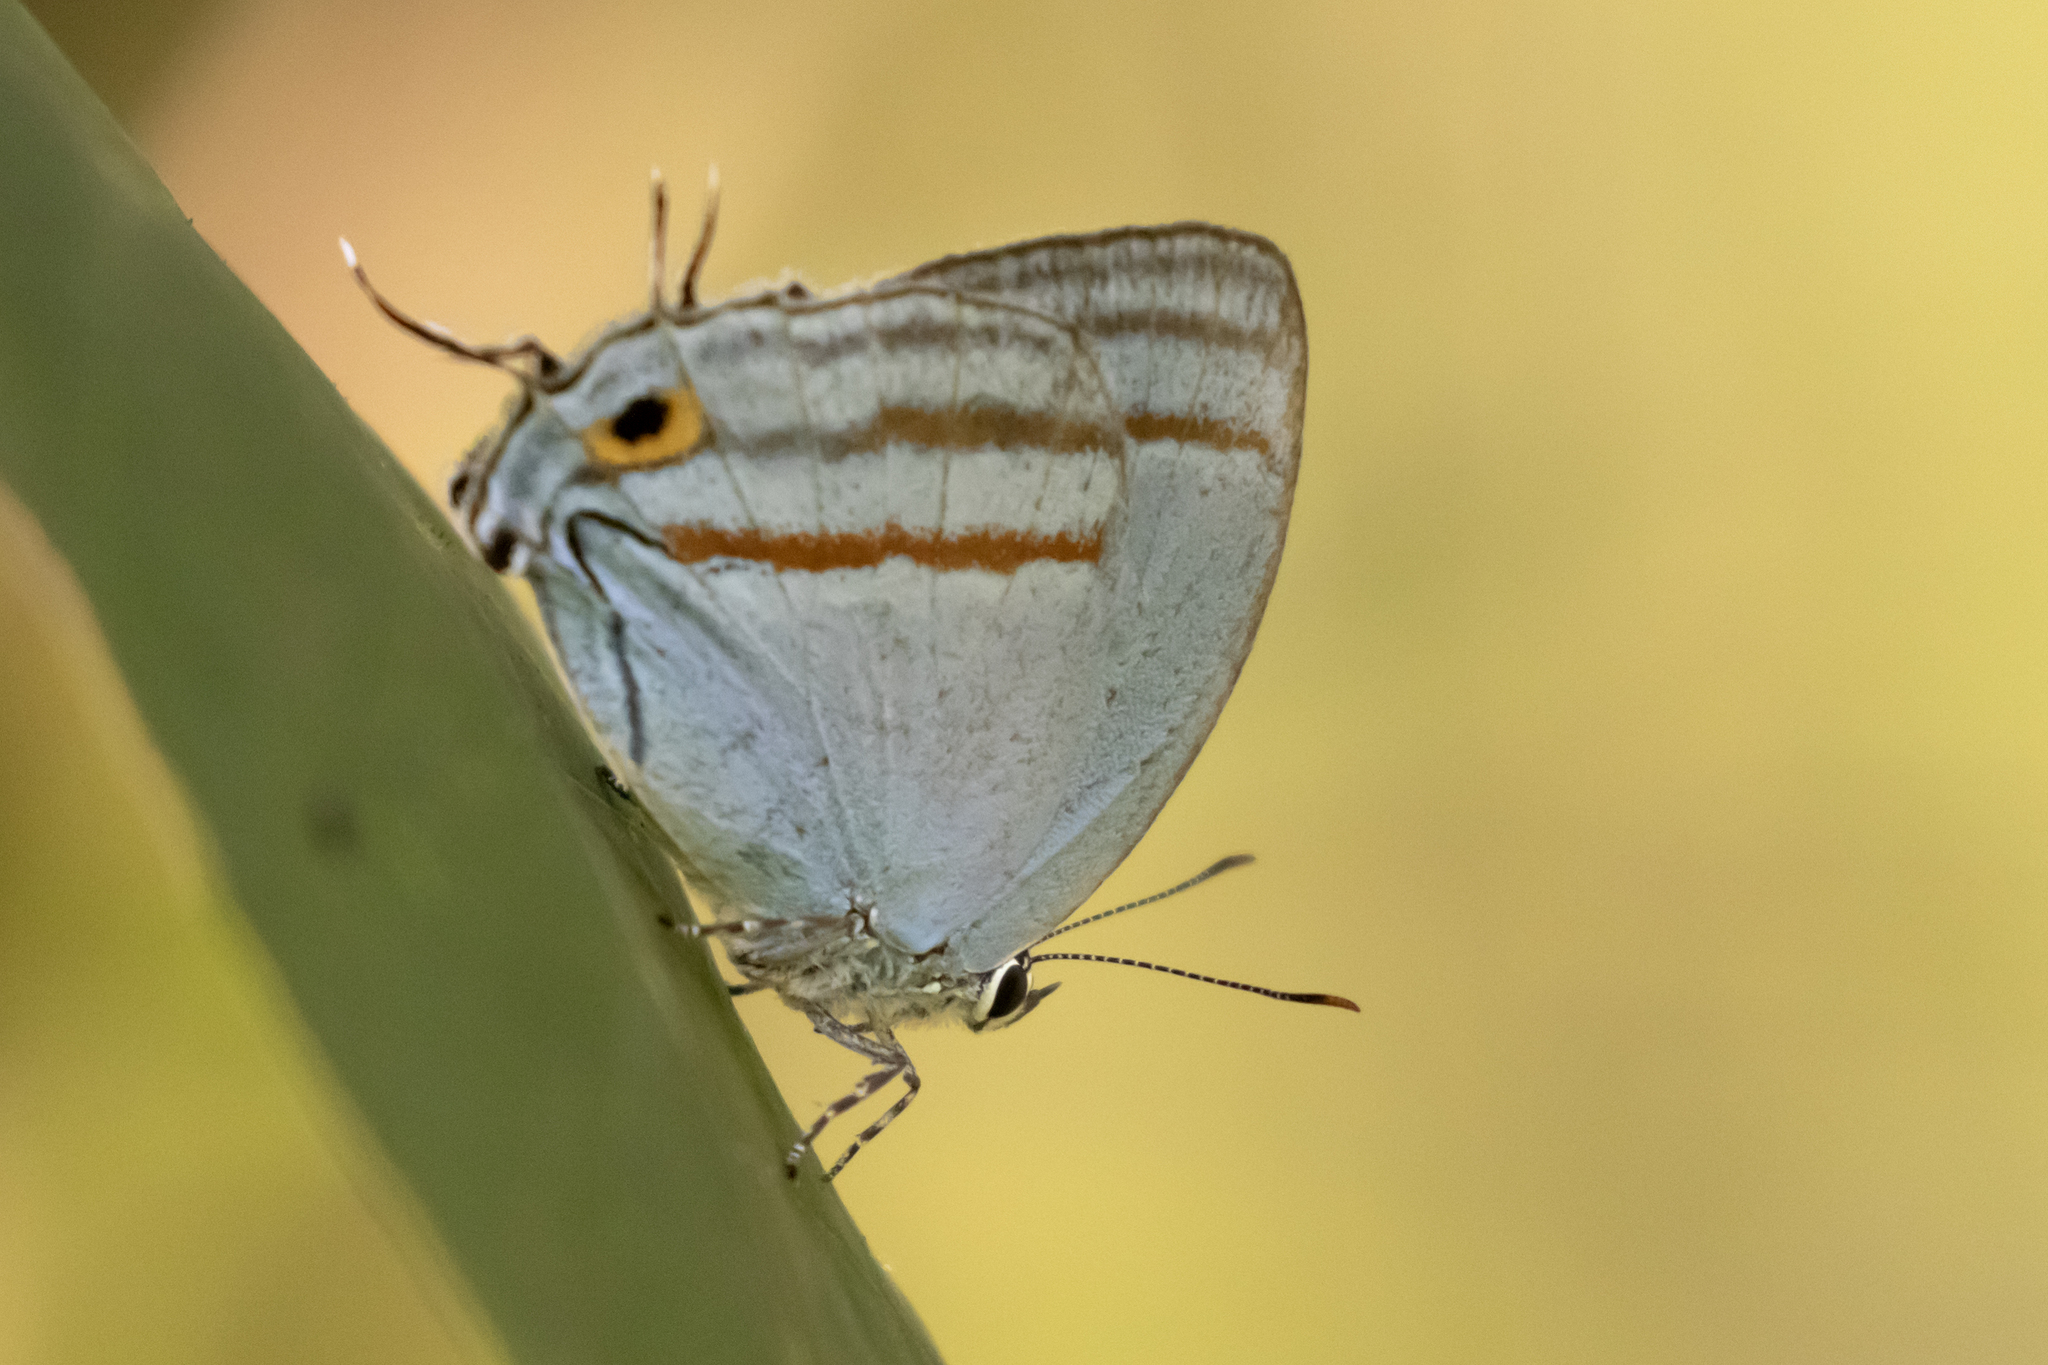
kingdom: Animalia
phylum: Arthropoda
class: Insecta
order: Lepidoptera
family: Lycaenidae
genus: Paiwarria
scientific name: Paiwarria venulius
